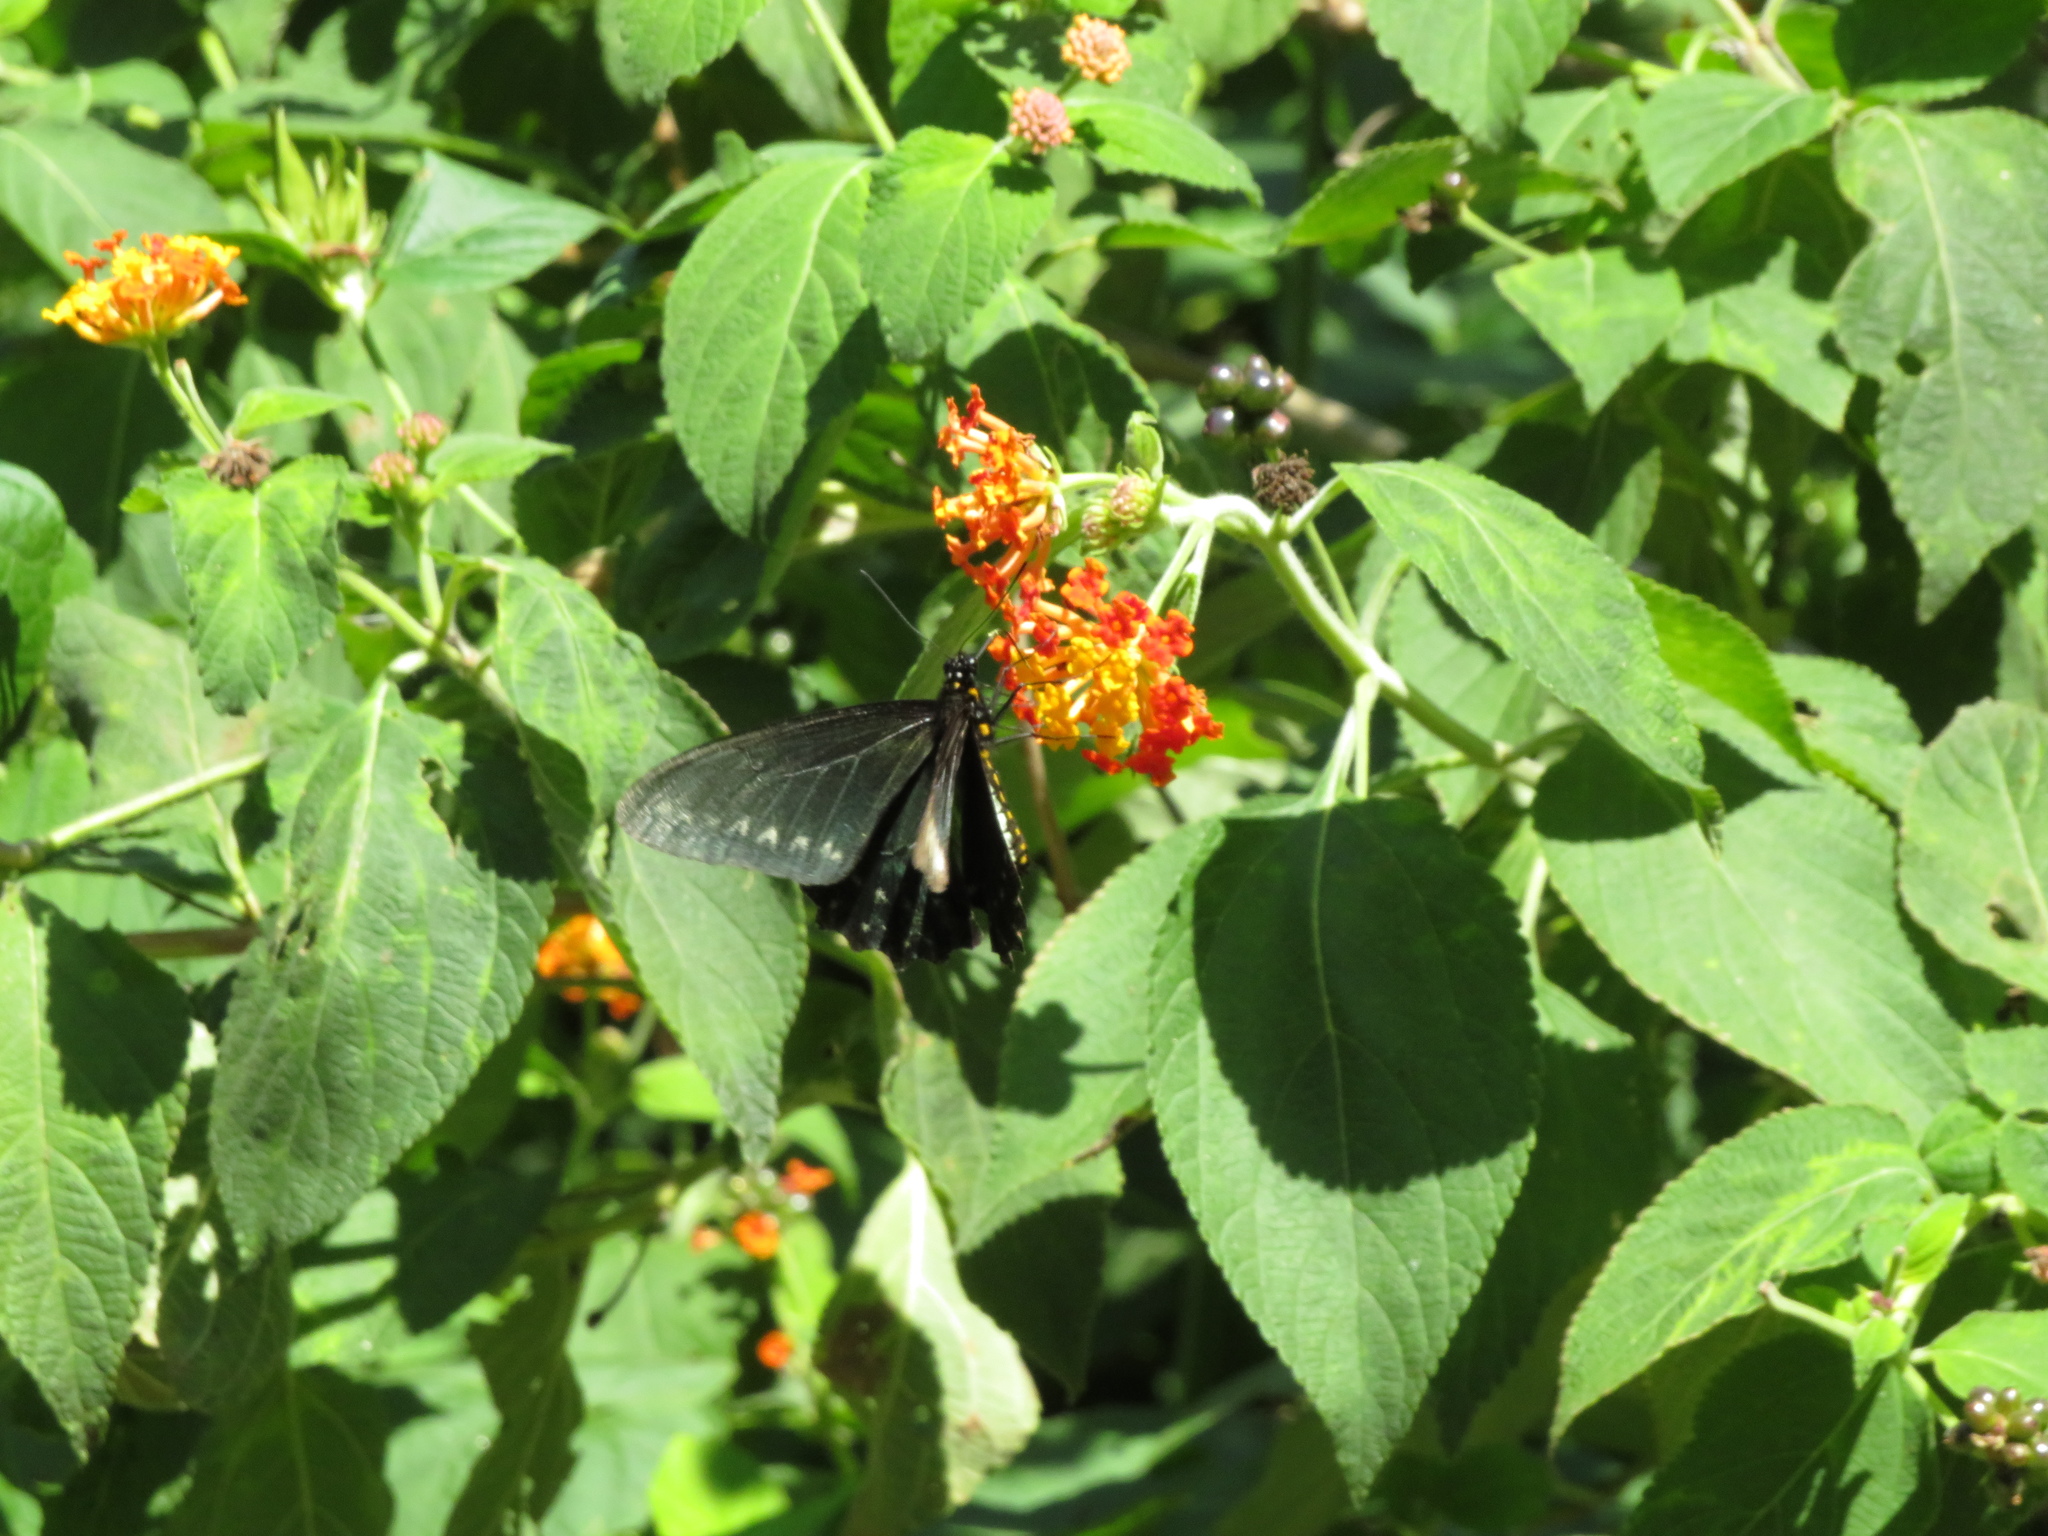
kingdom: Animalia
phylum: Arthropoda
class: Insecta
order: Lepidoptera
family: Papilionidae
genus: Battus
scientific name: Battus polystictus
